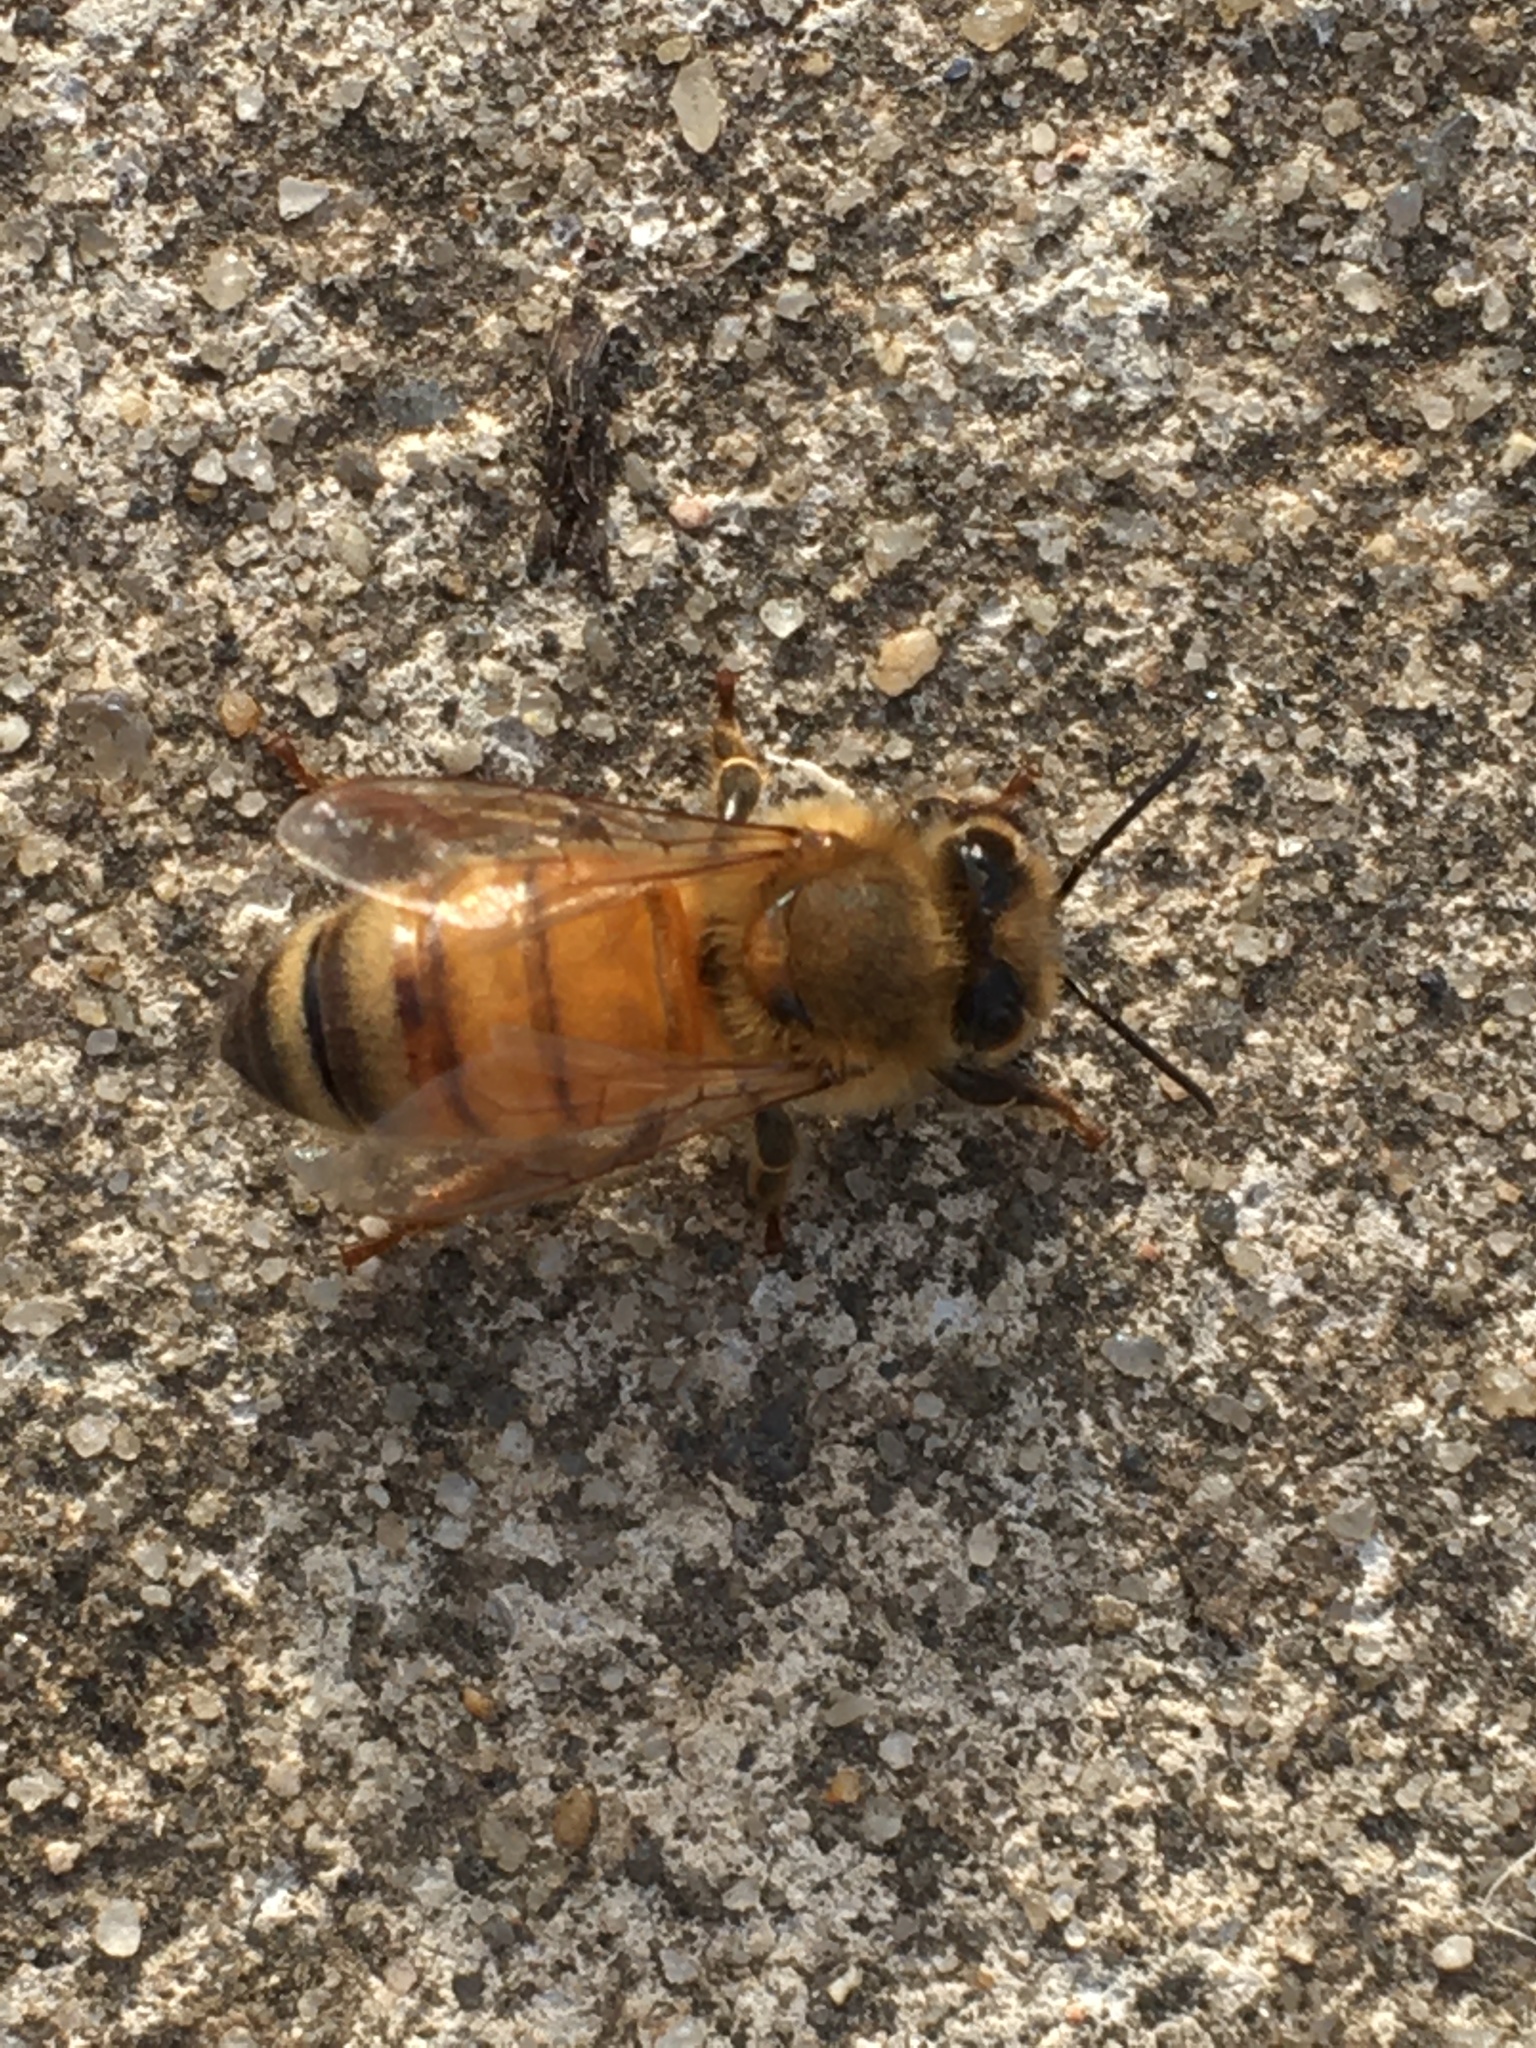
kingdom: Animalia
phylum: Arthropoda
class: Insecta
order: Hymenoptera
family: Apidae
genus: Apis
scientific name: Apis mellifera
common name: Honey bee
